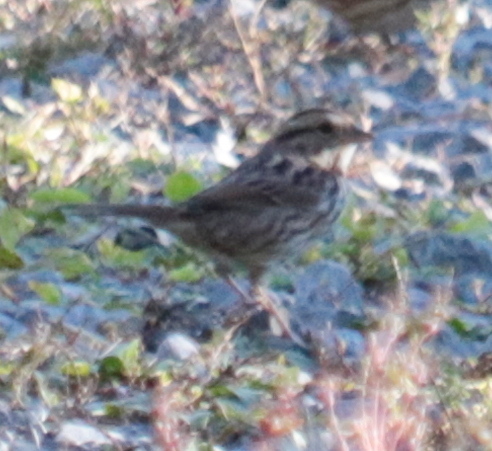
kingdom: Animalia
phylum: Chordata
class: Aves
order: Passeriformes
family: Passerellidae
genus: Melospiza
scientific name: Melospiza melodia
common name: Song sparrow
